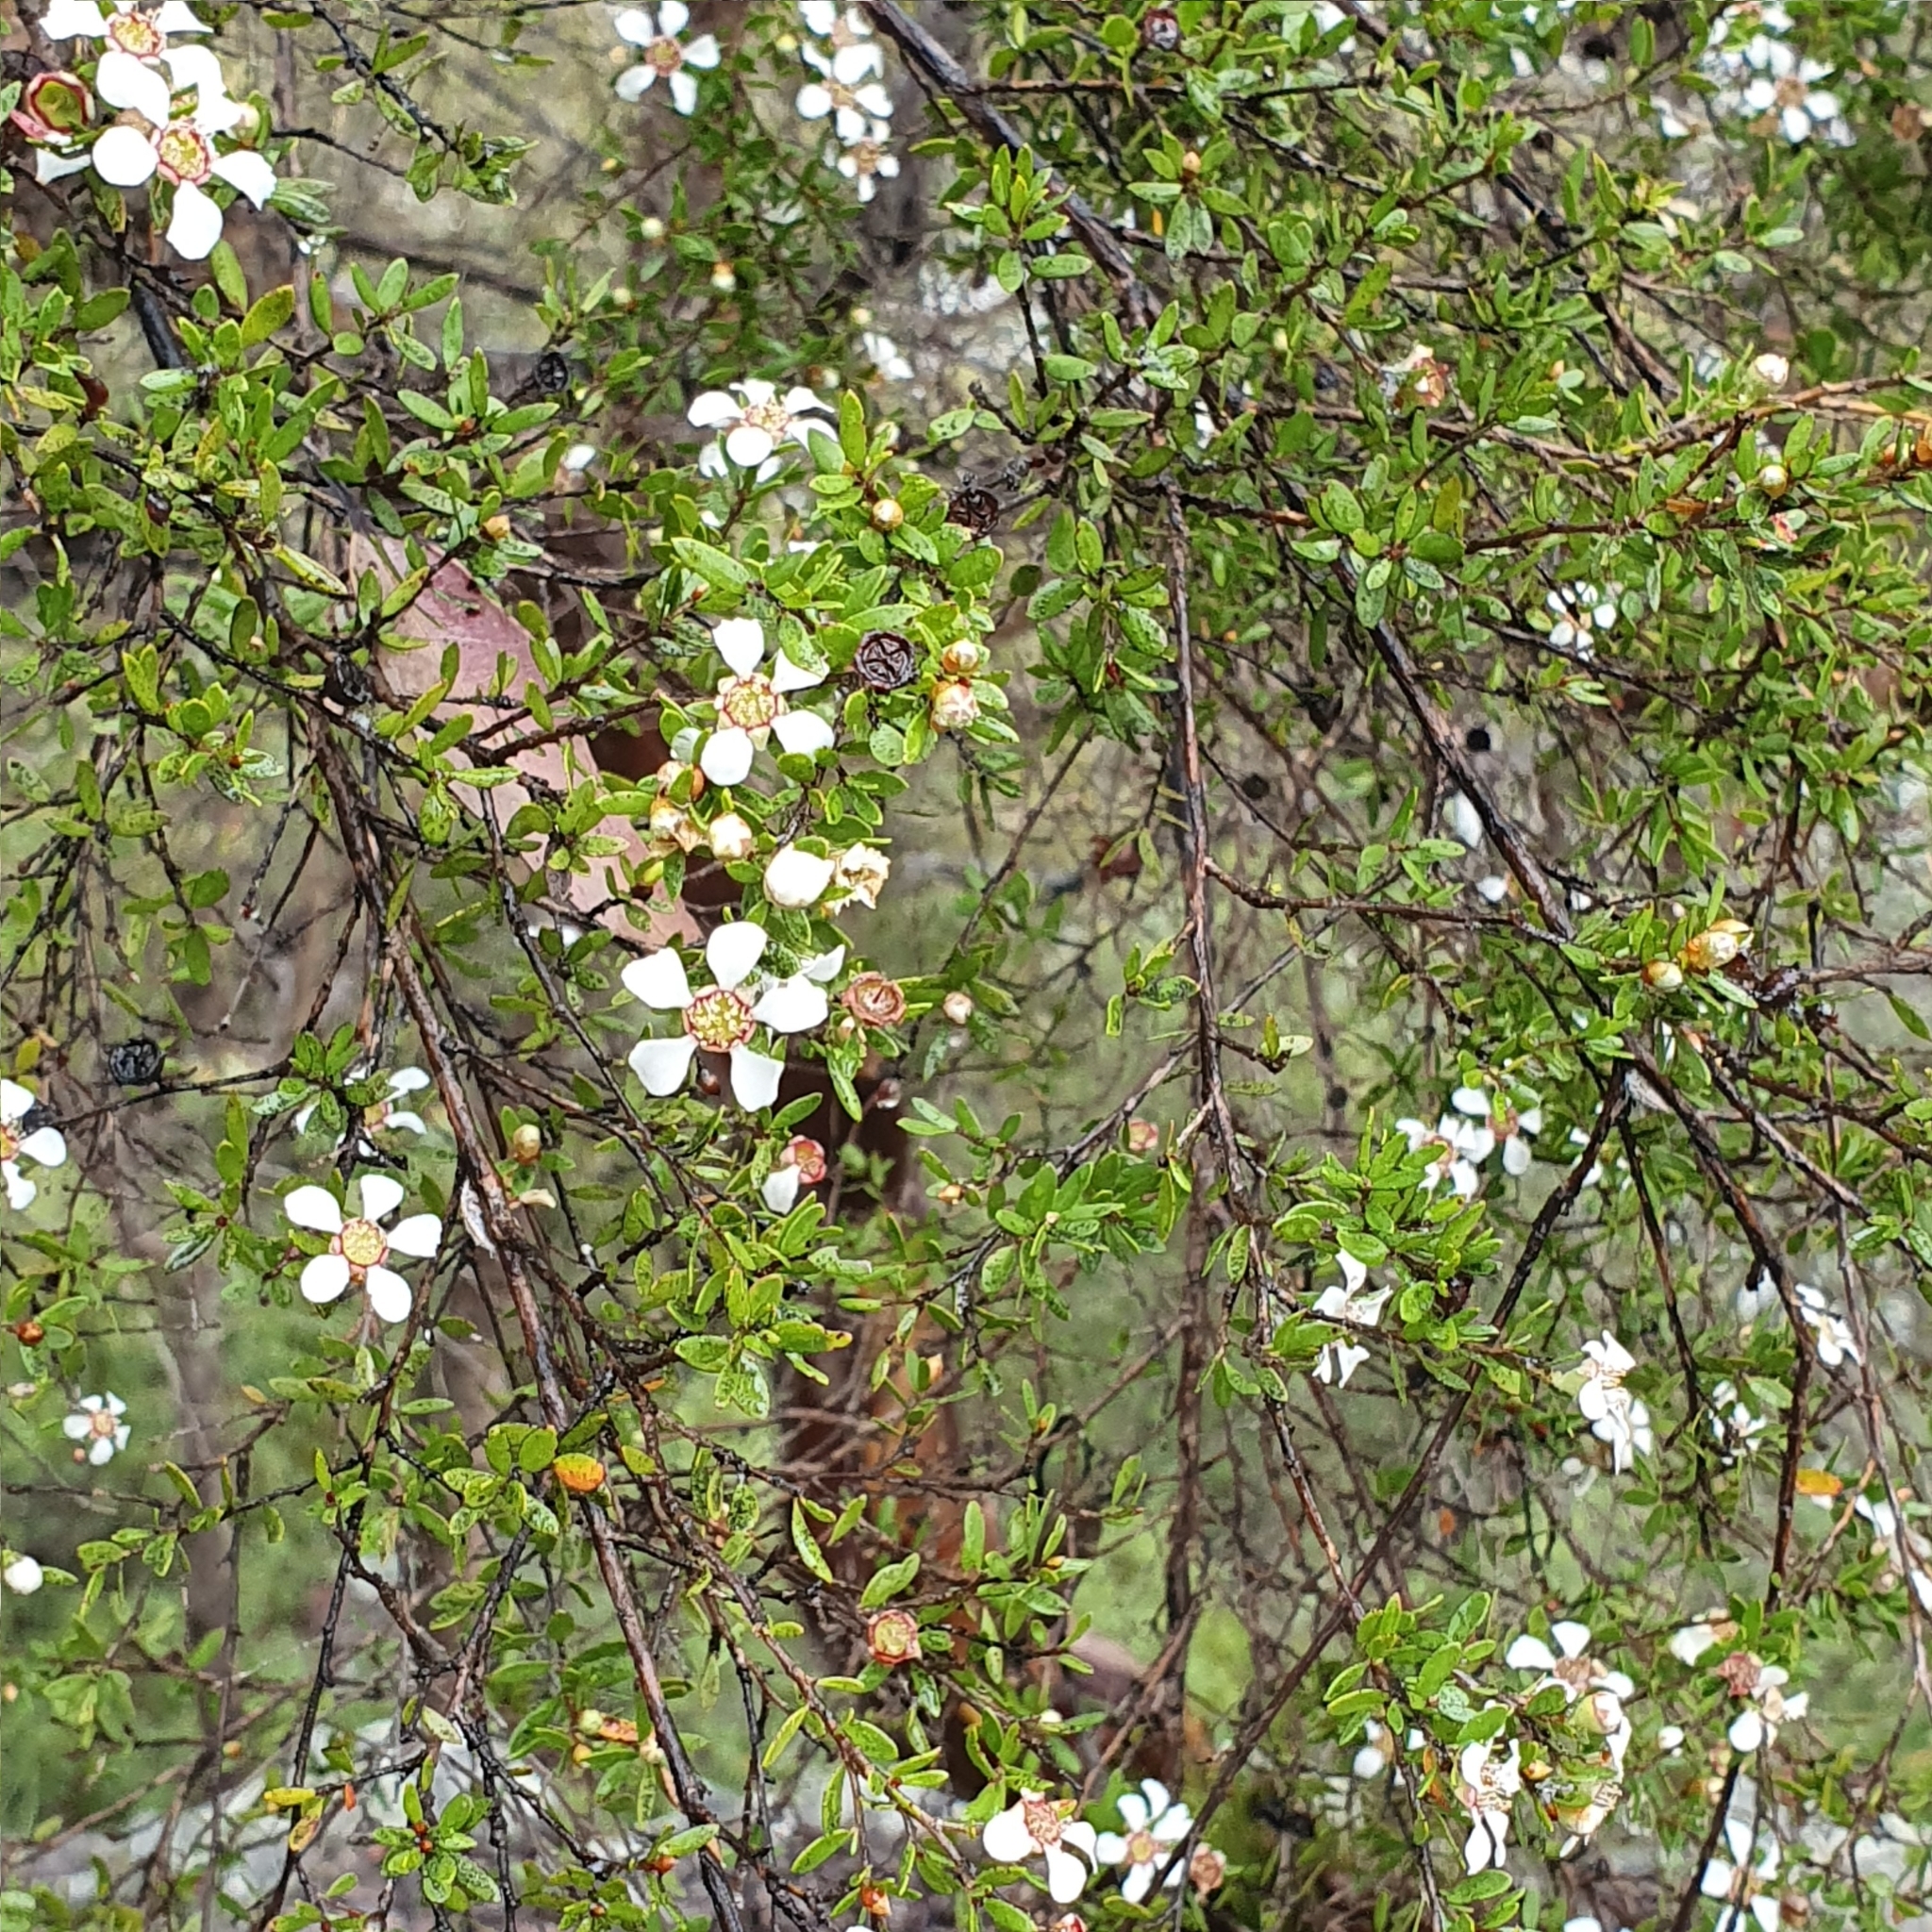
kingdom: Plantae
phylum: Tracheophyta
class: Magnoliopsida
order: Myrtales
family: Myrtaceae
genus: Leptospermum
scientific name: Leptospermum trinervium
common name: Flaky-barked tea-tree
